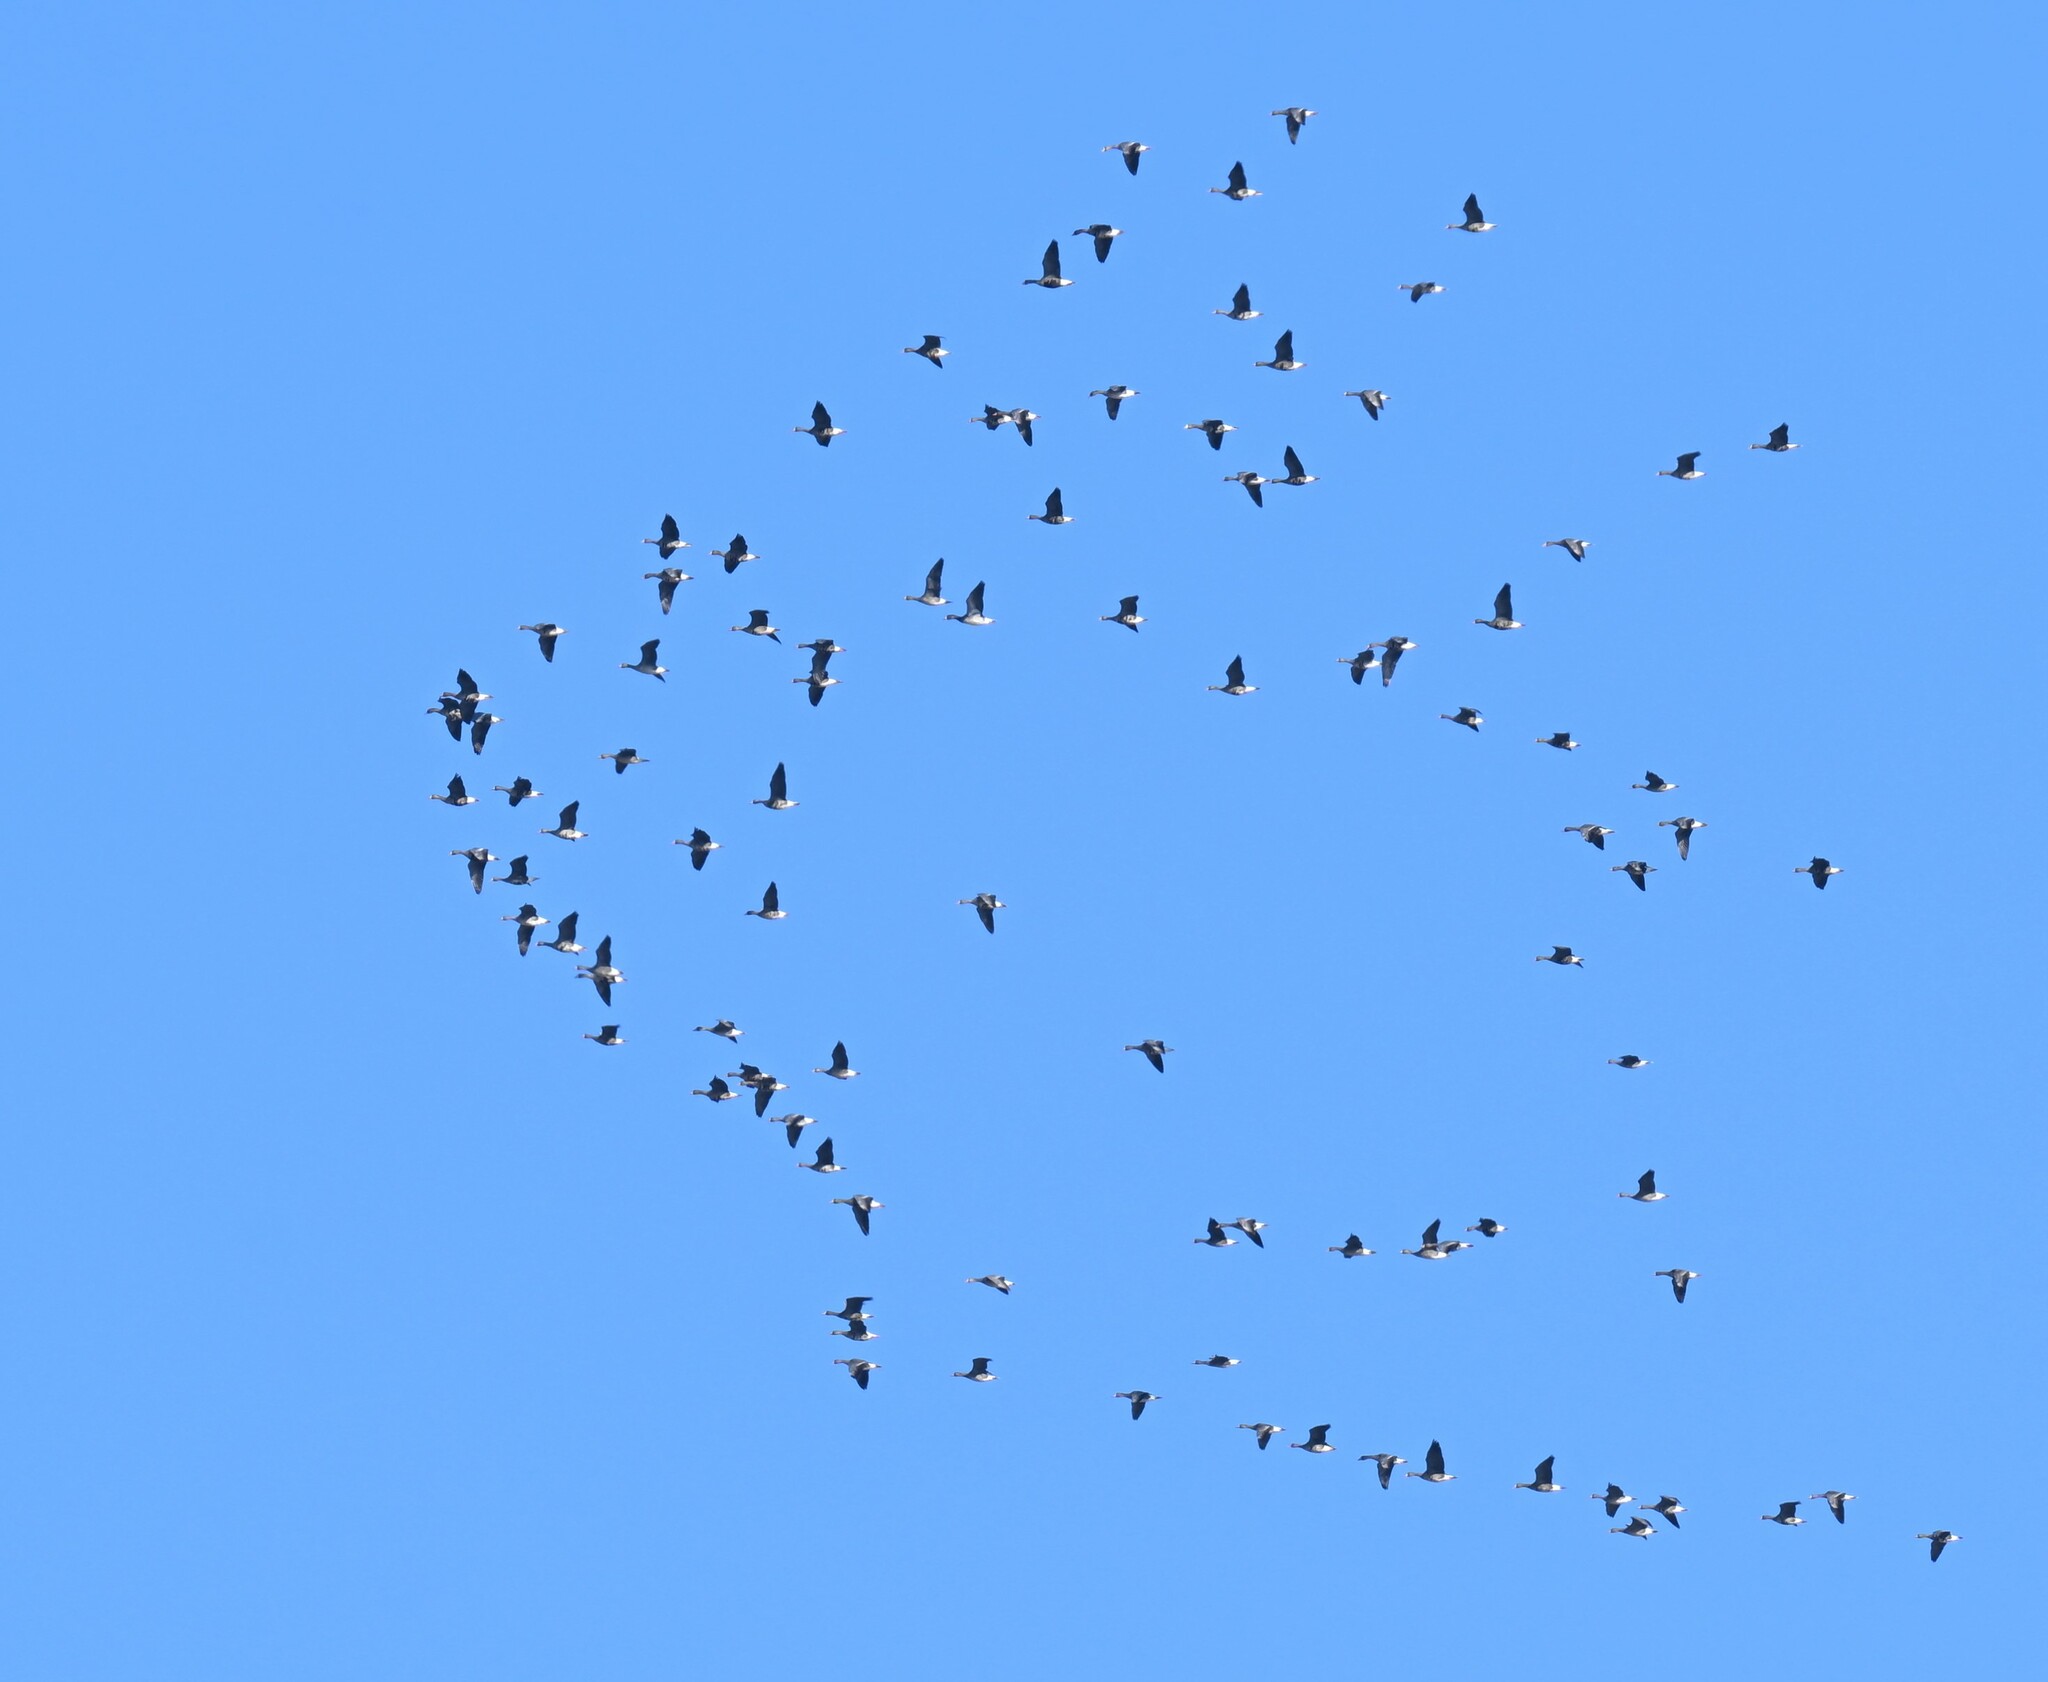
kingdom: Animalia
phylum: Chordata
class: Aves
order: Anseriformes
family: Anatidae
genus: Anser
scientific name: Anser albifrons
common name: Greater white-fronted goose
